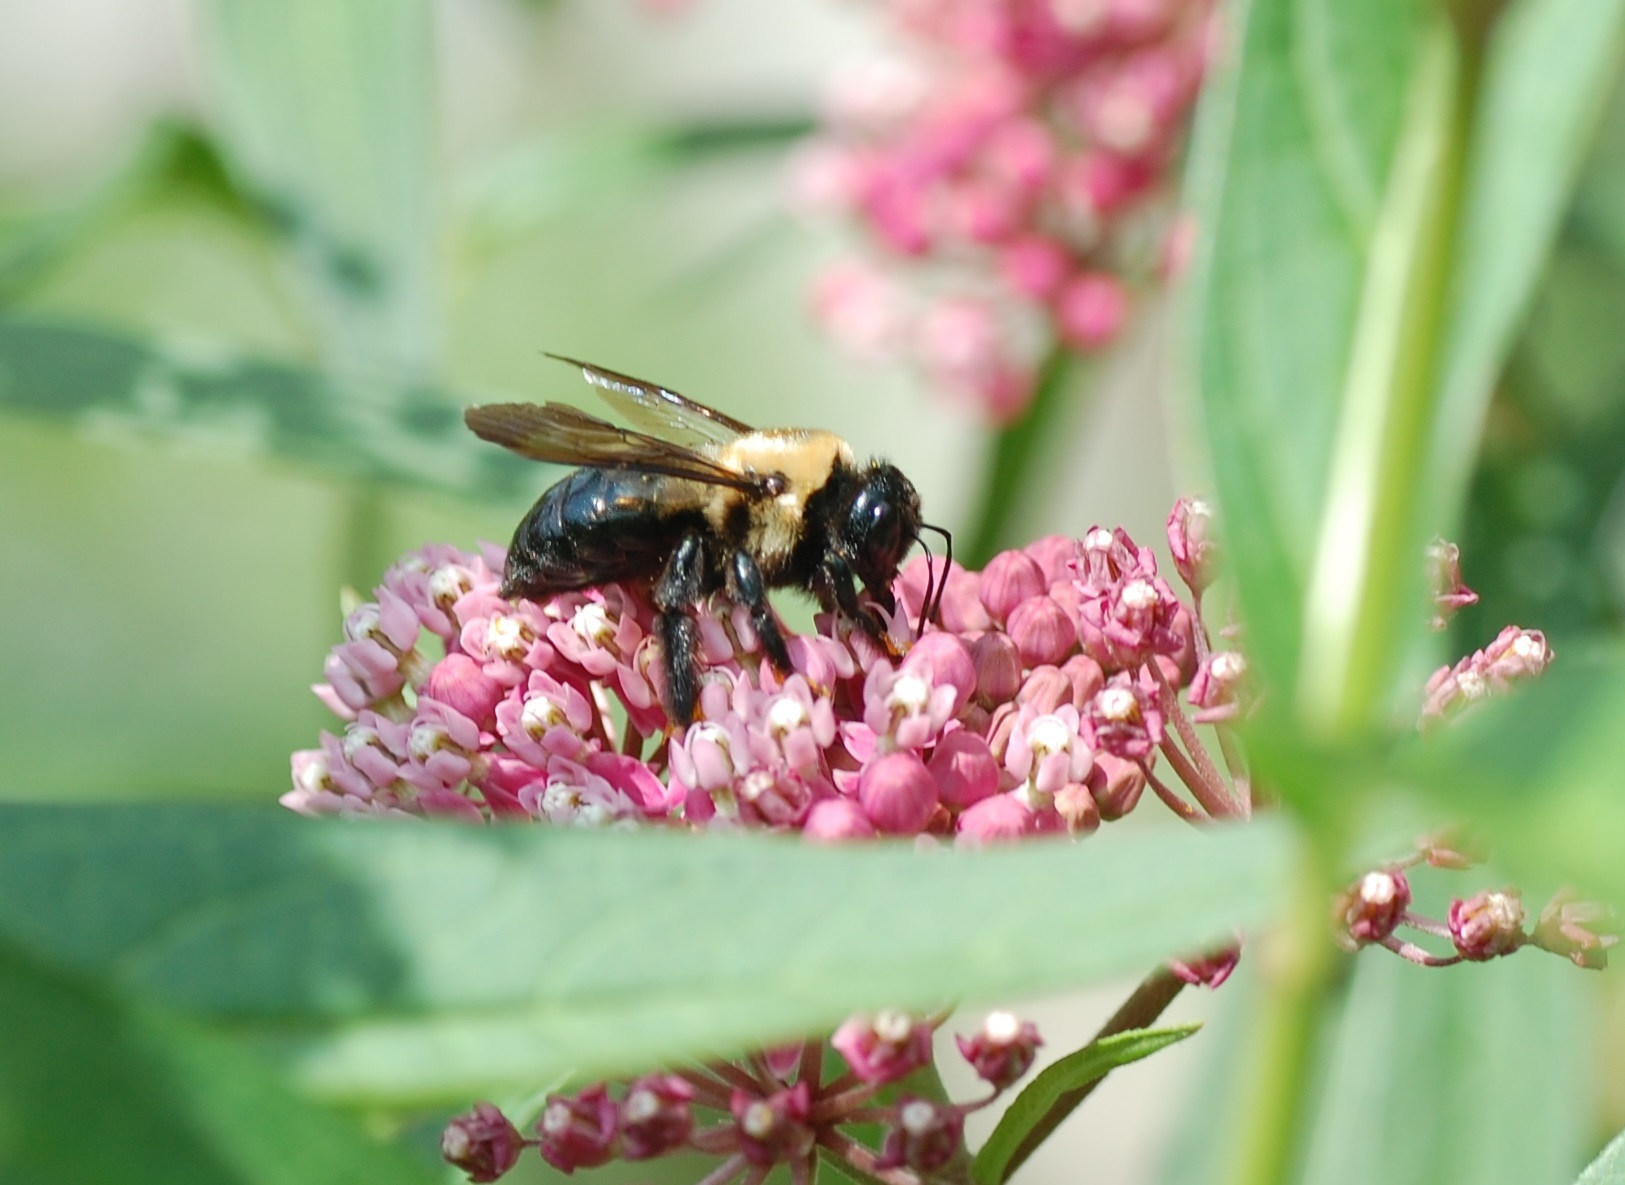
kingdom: Animalia
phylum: Arthropoda
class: Insecta
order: Hymenoptera
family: Apidae
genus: Xylocopa
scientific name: Xylocopa virginica
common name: Carpenter bee
